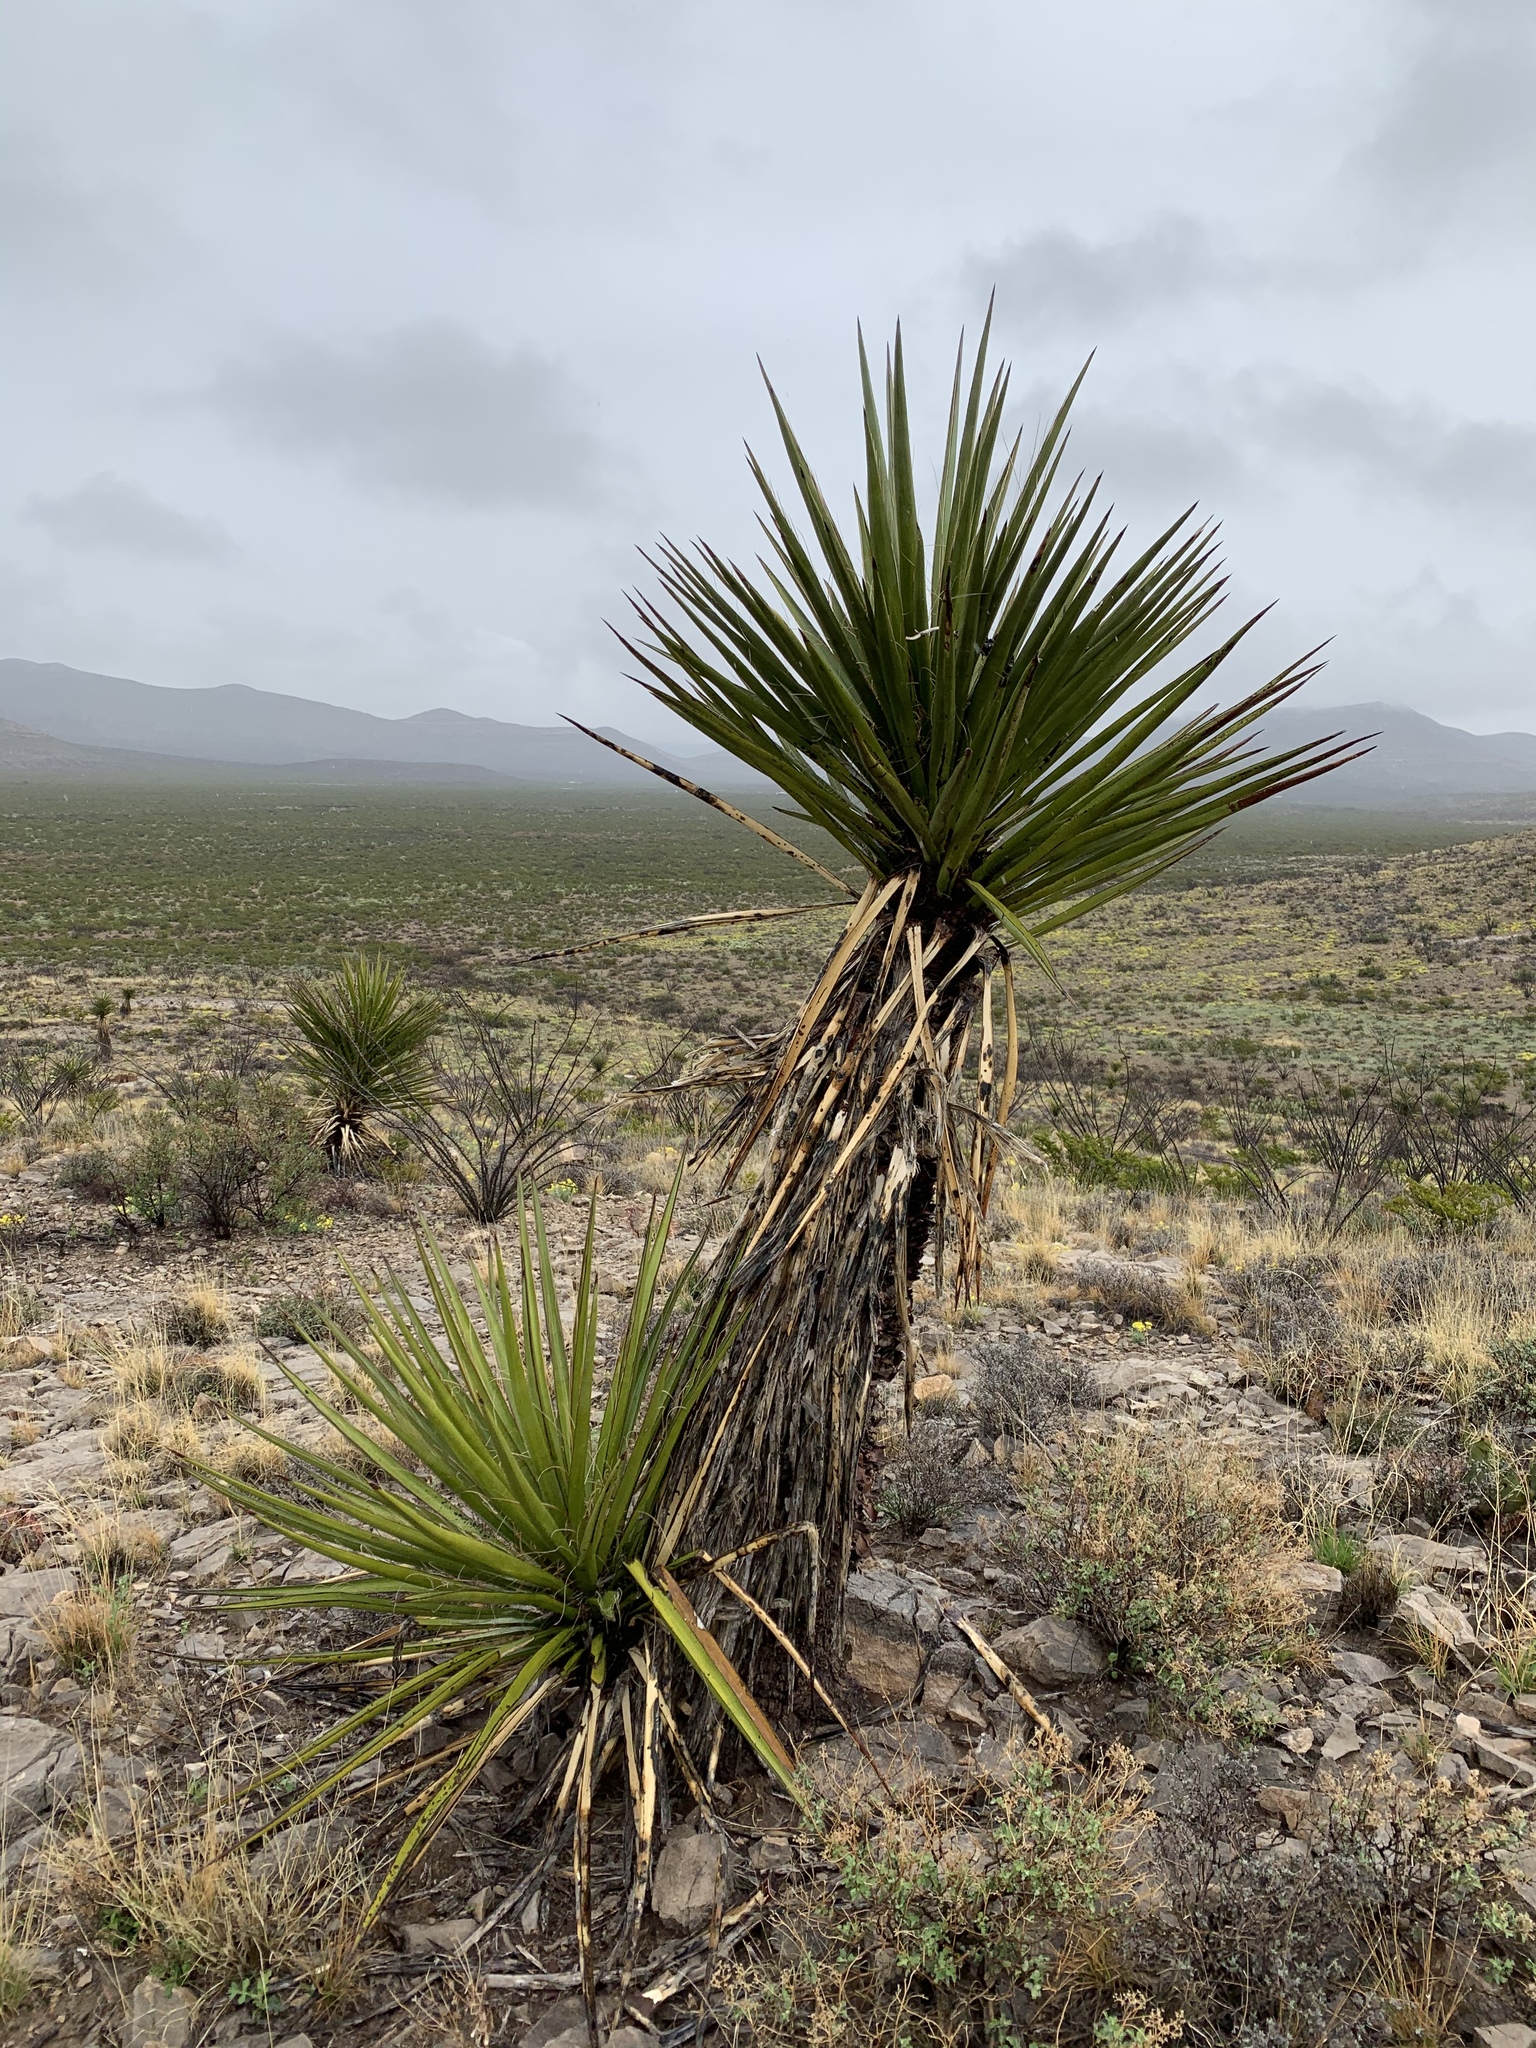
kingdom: Plantae
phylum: Tracheophyta
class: Liliopsida
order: Asparagales
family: Asparagaceae
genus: Yucca
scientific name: Yucca treculiana
